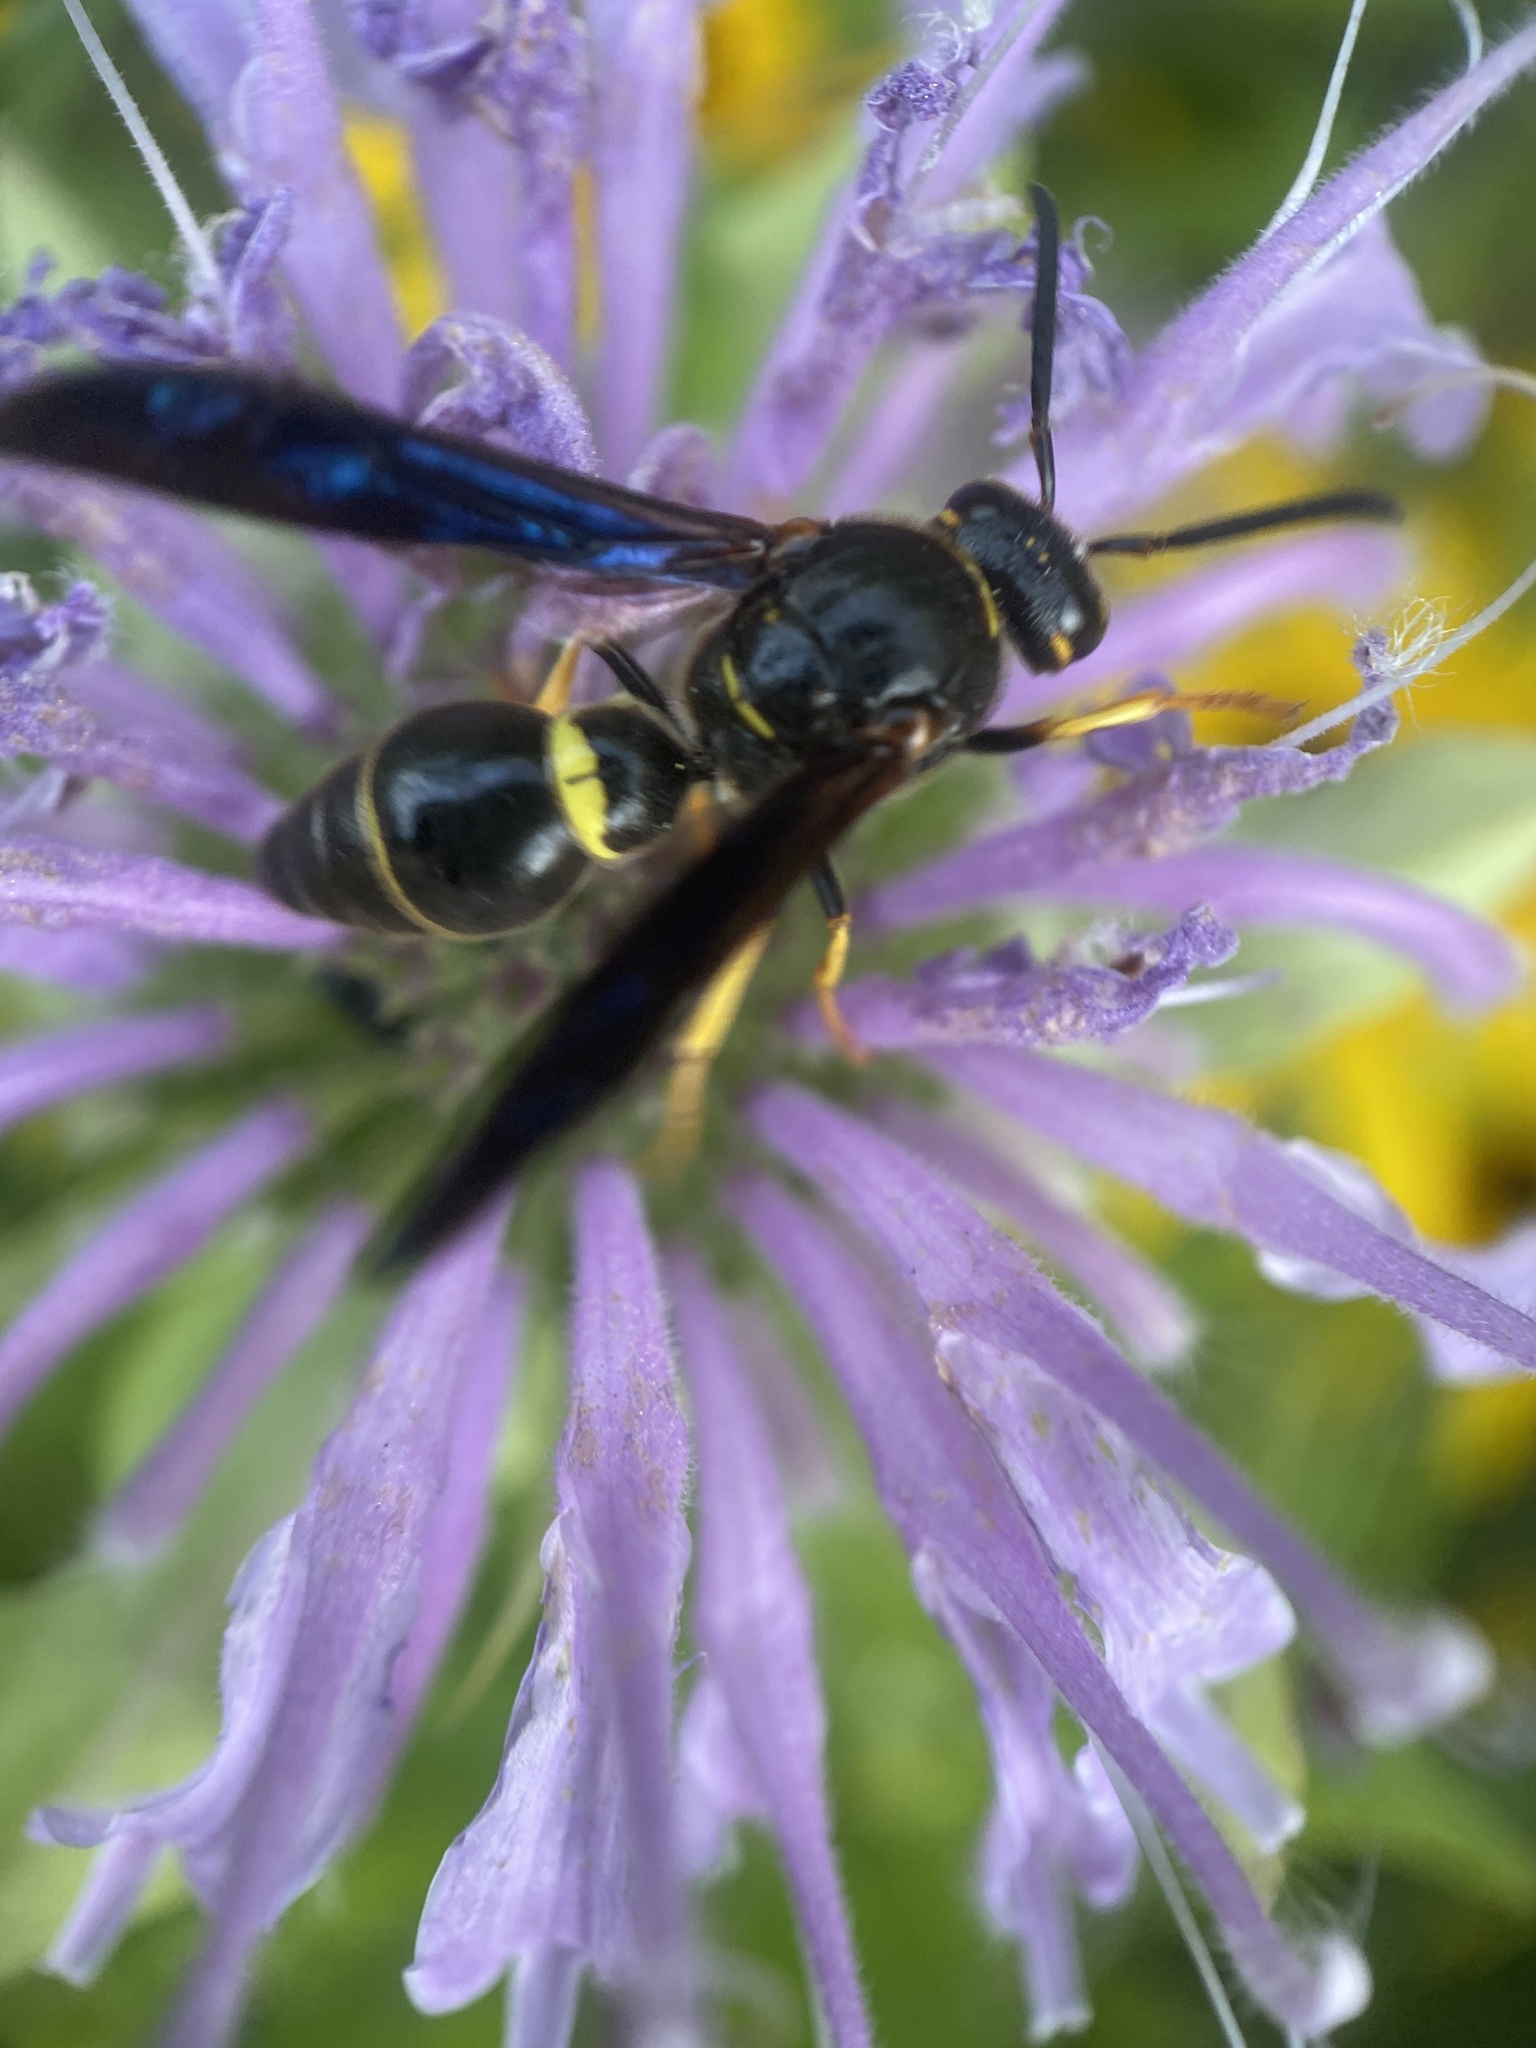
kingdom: Animalia
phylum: Arthropoda
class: Insecta
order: Hymenoptera
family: Eumenidae
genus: Parazumia
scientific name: Parazumia symmorpha
